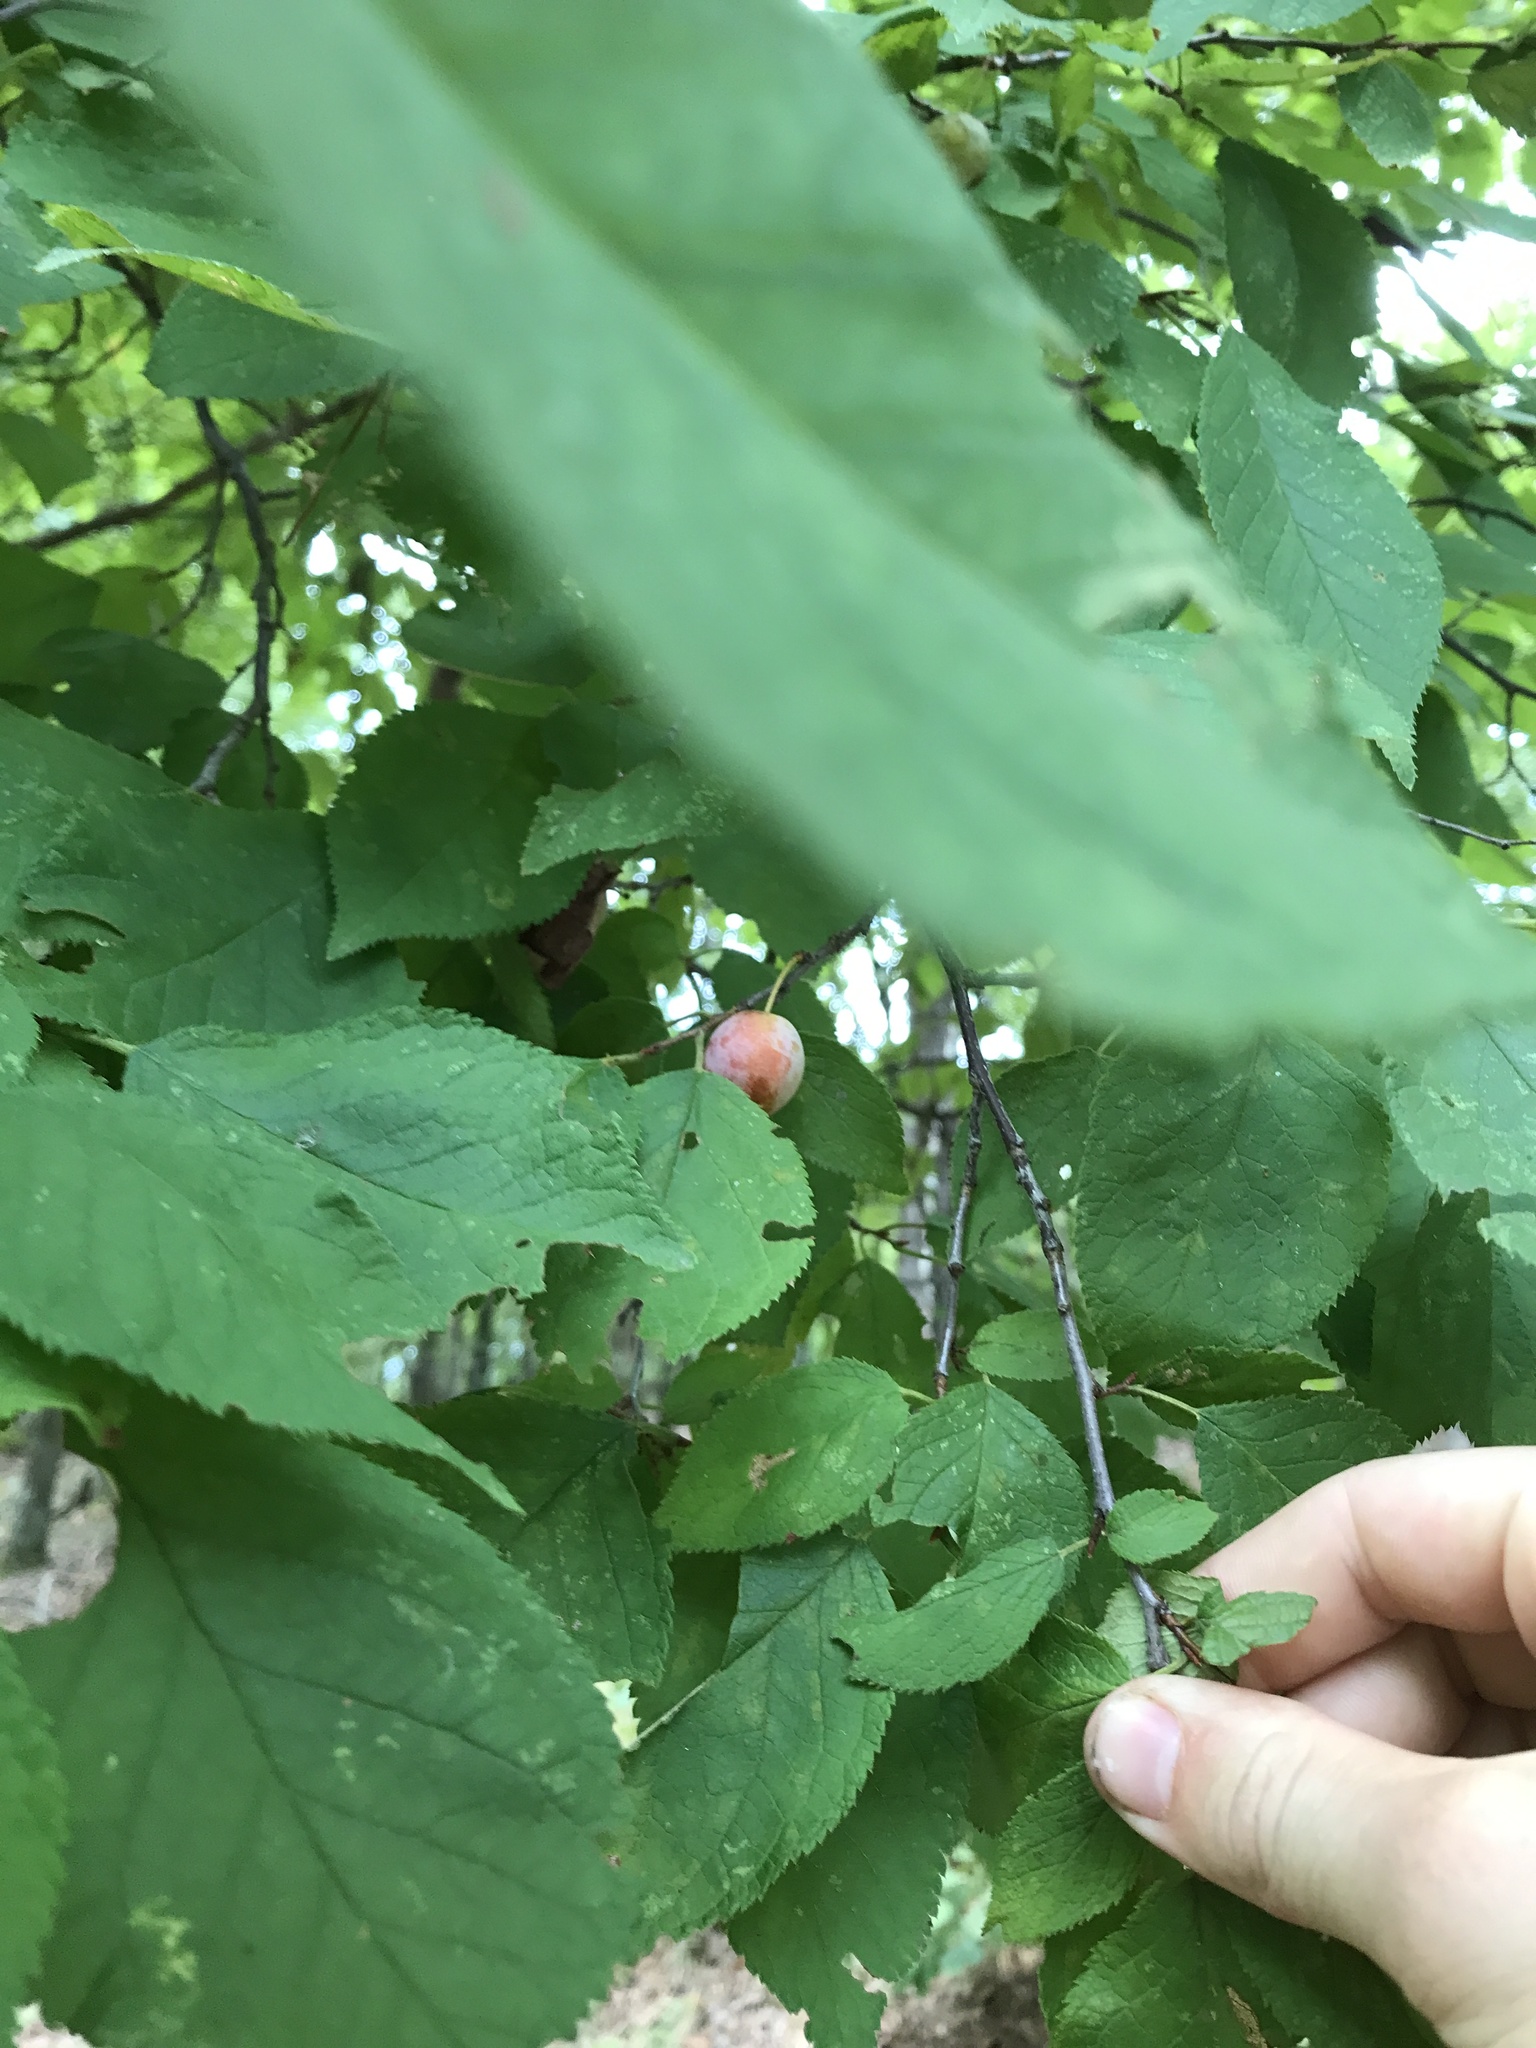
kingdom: Plantae
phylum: Tracheophyta
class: Magnoliopsida
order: Rosales
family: Rosaceae
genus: Prunus
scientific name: Prunus mexicana
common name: Mexican plum
